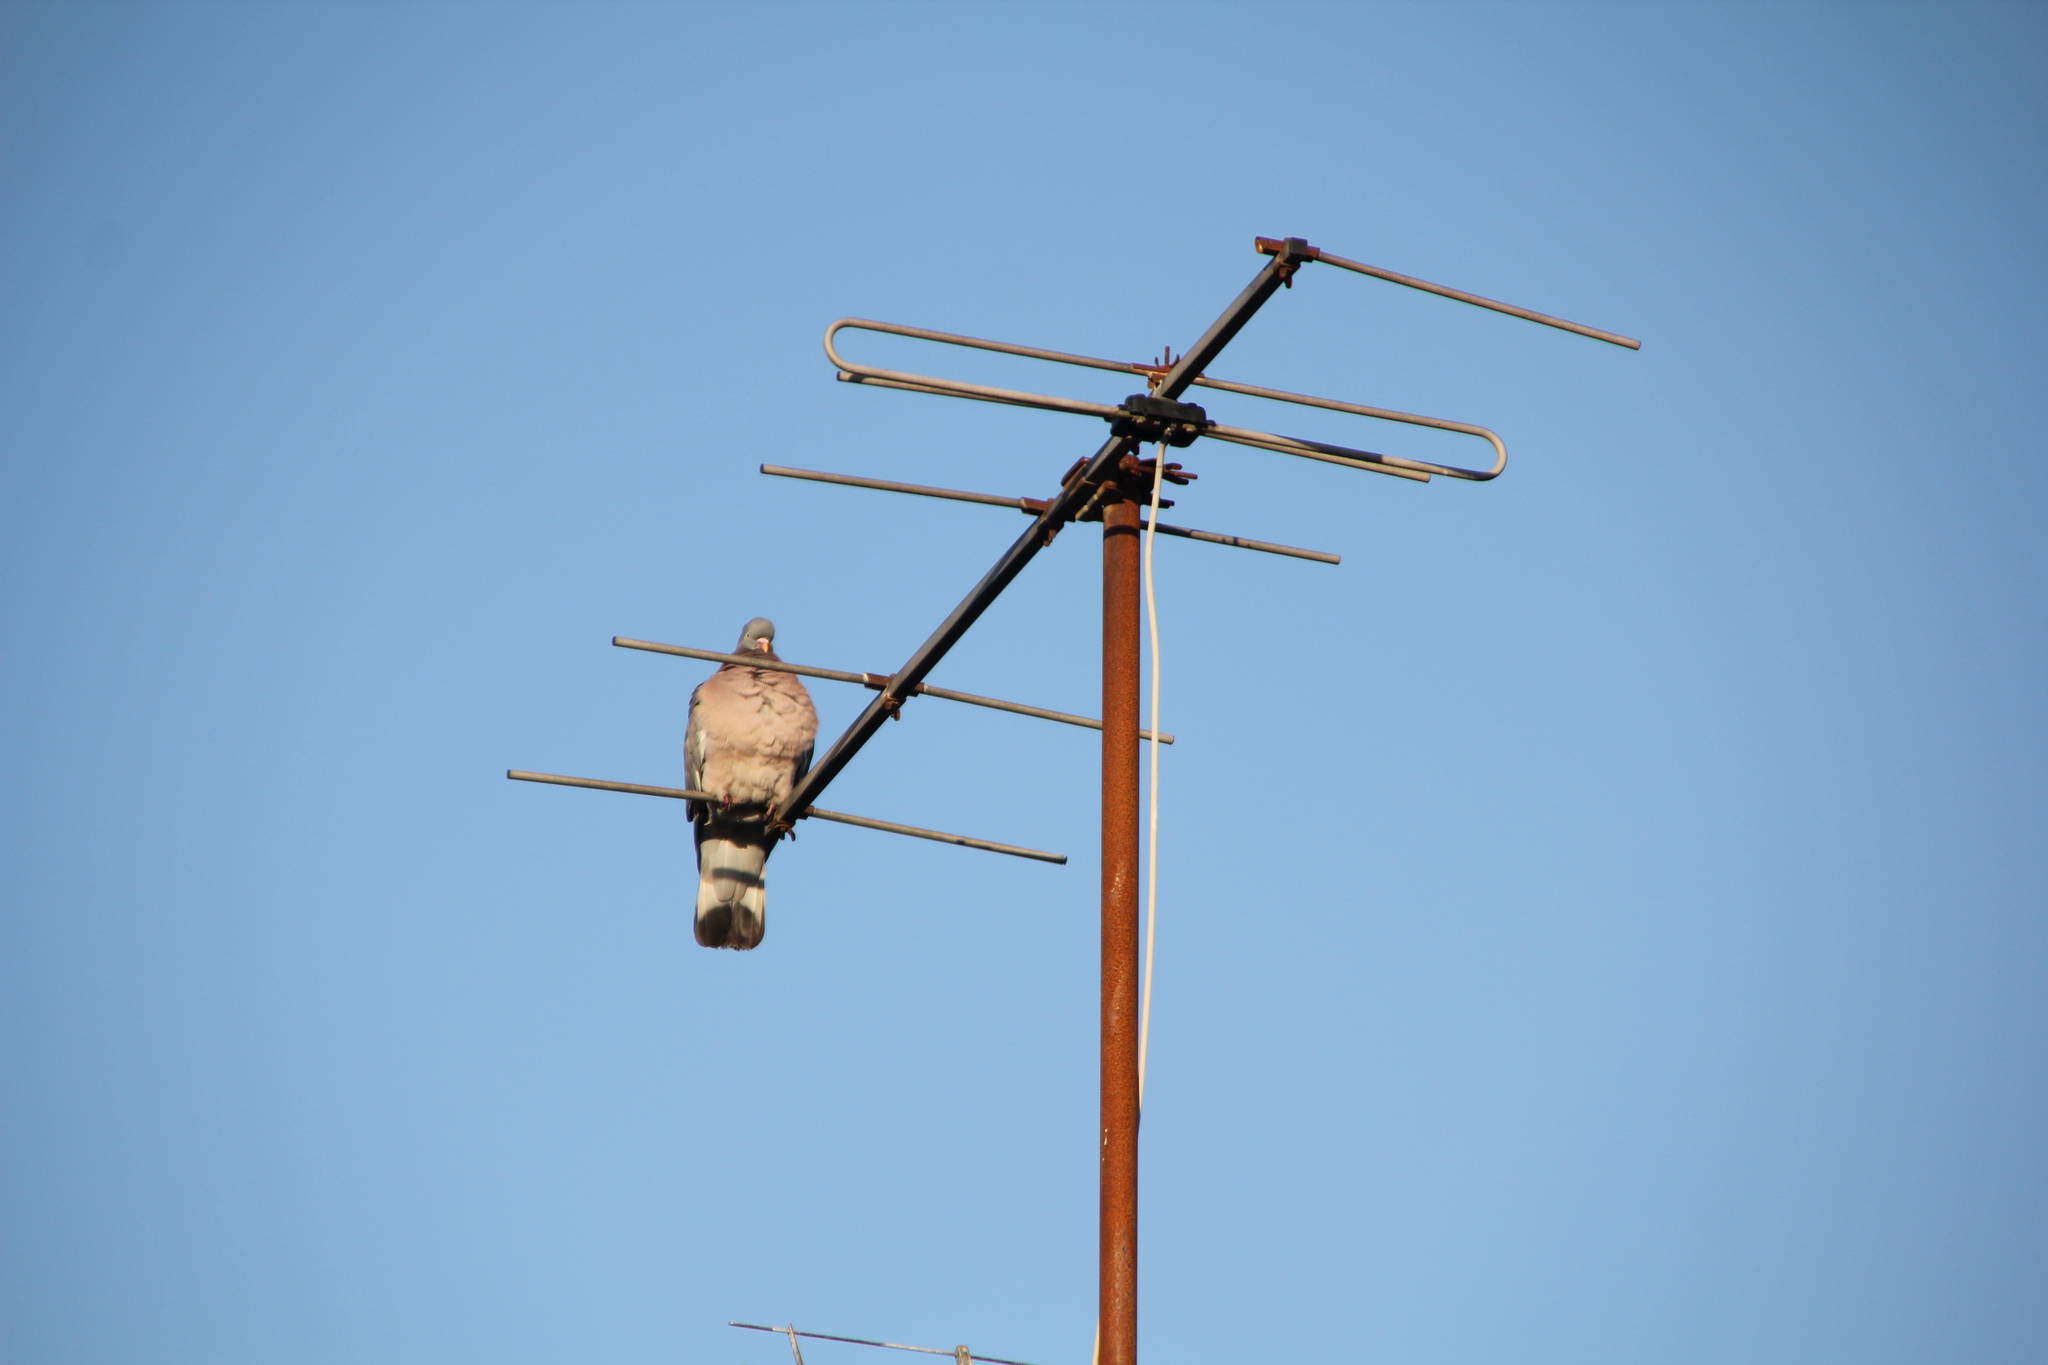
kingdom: Animalia
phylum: Chordata
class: Aves
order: Columbiformes
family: Columbidae
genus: Columba
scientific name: Columba palumbus
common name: Common wood pigeon
